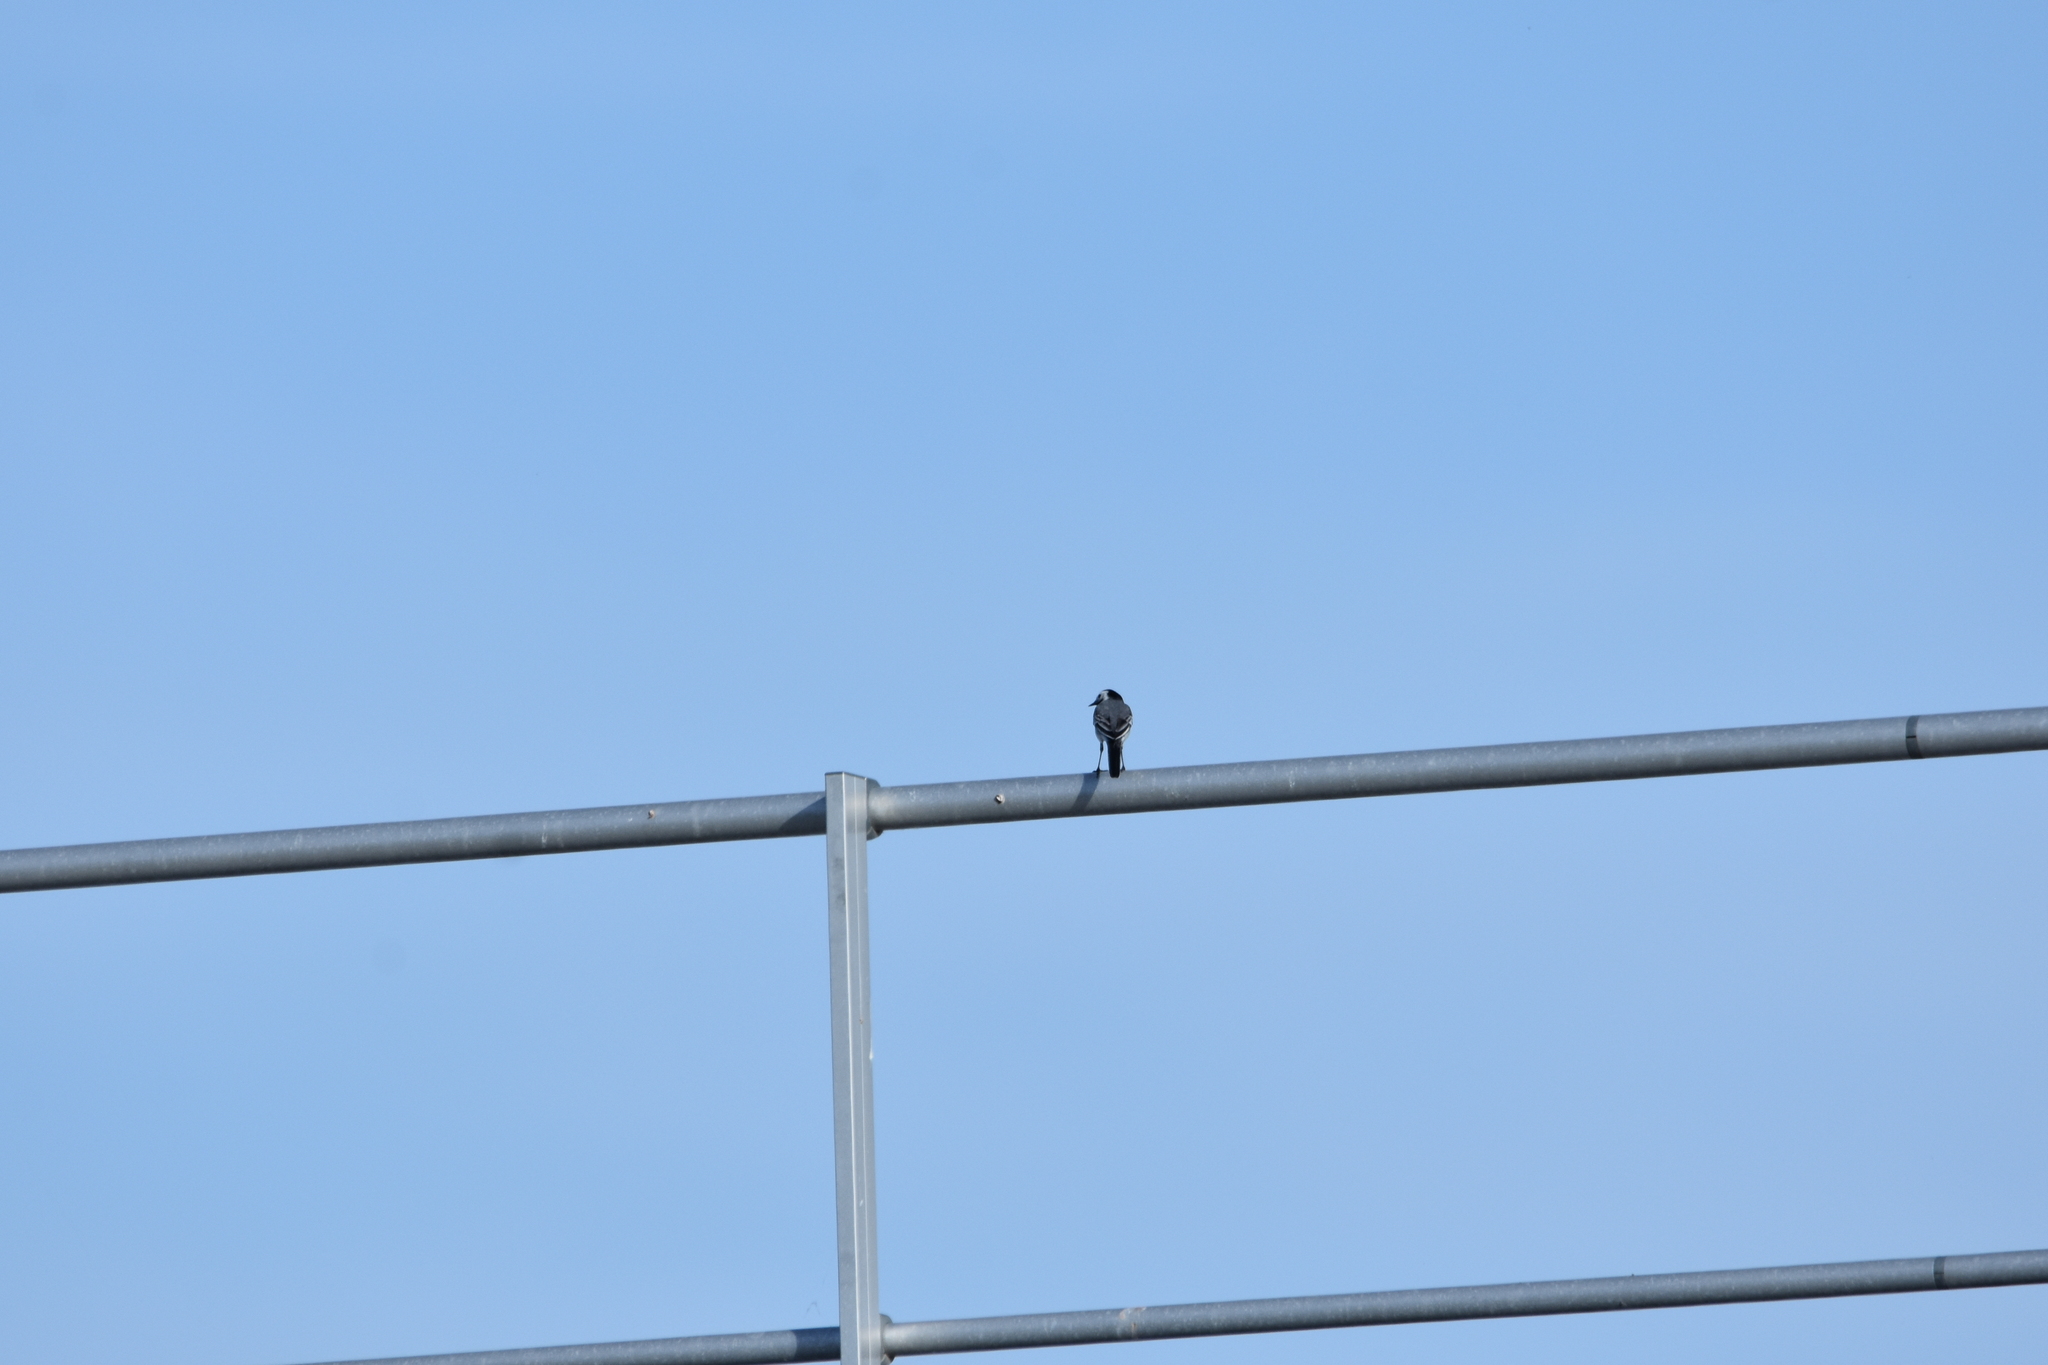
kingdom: Animalia
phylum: Chordata
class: Aves
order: Passeriformes
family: Motacillidae
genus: Motacilla
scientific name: Motacilla alba
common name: White wagtail
